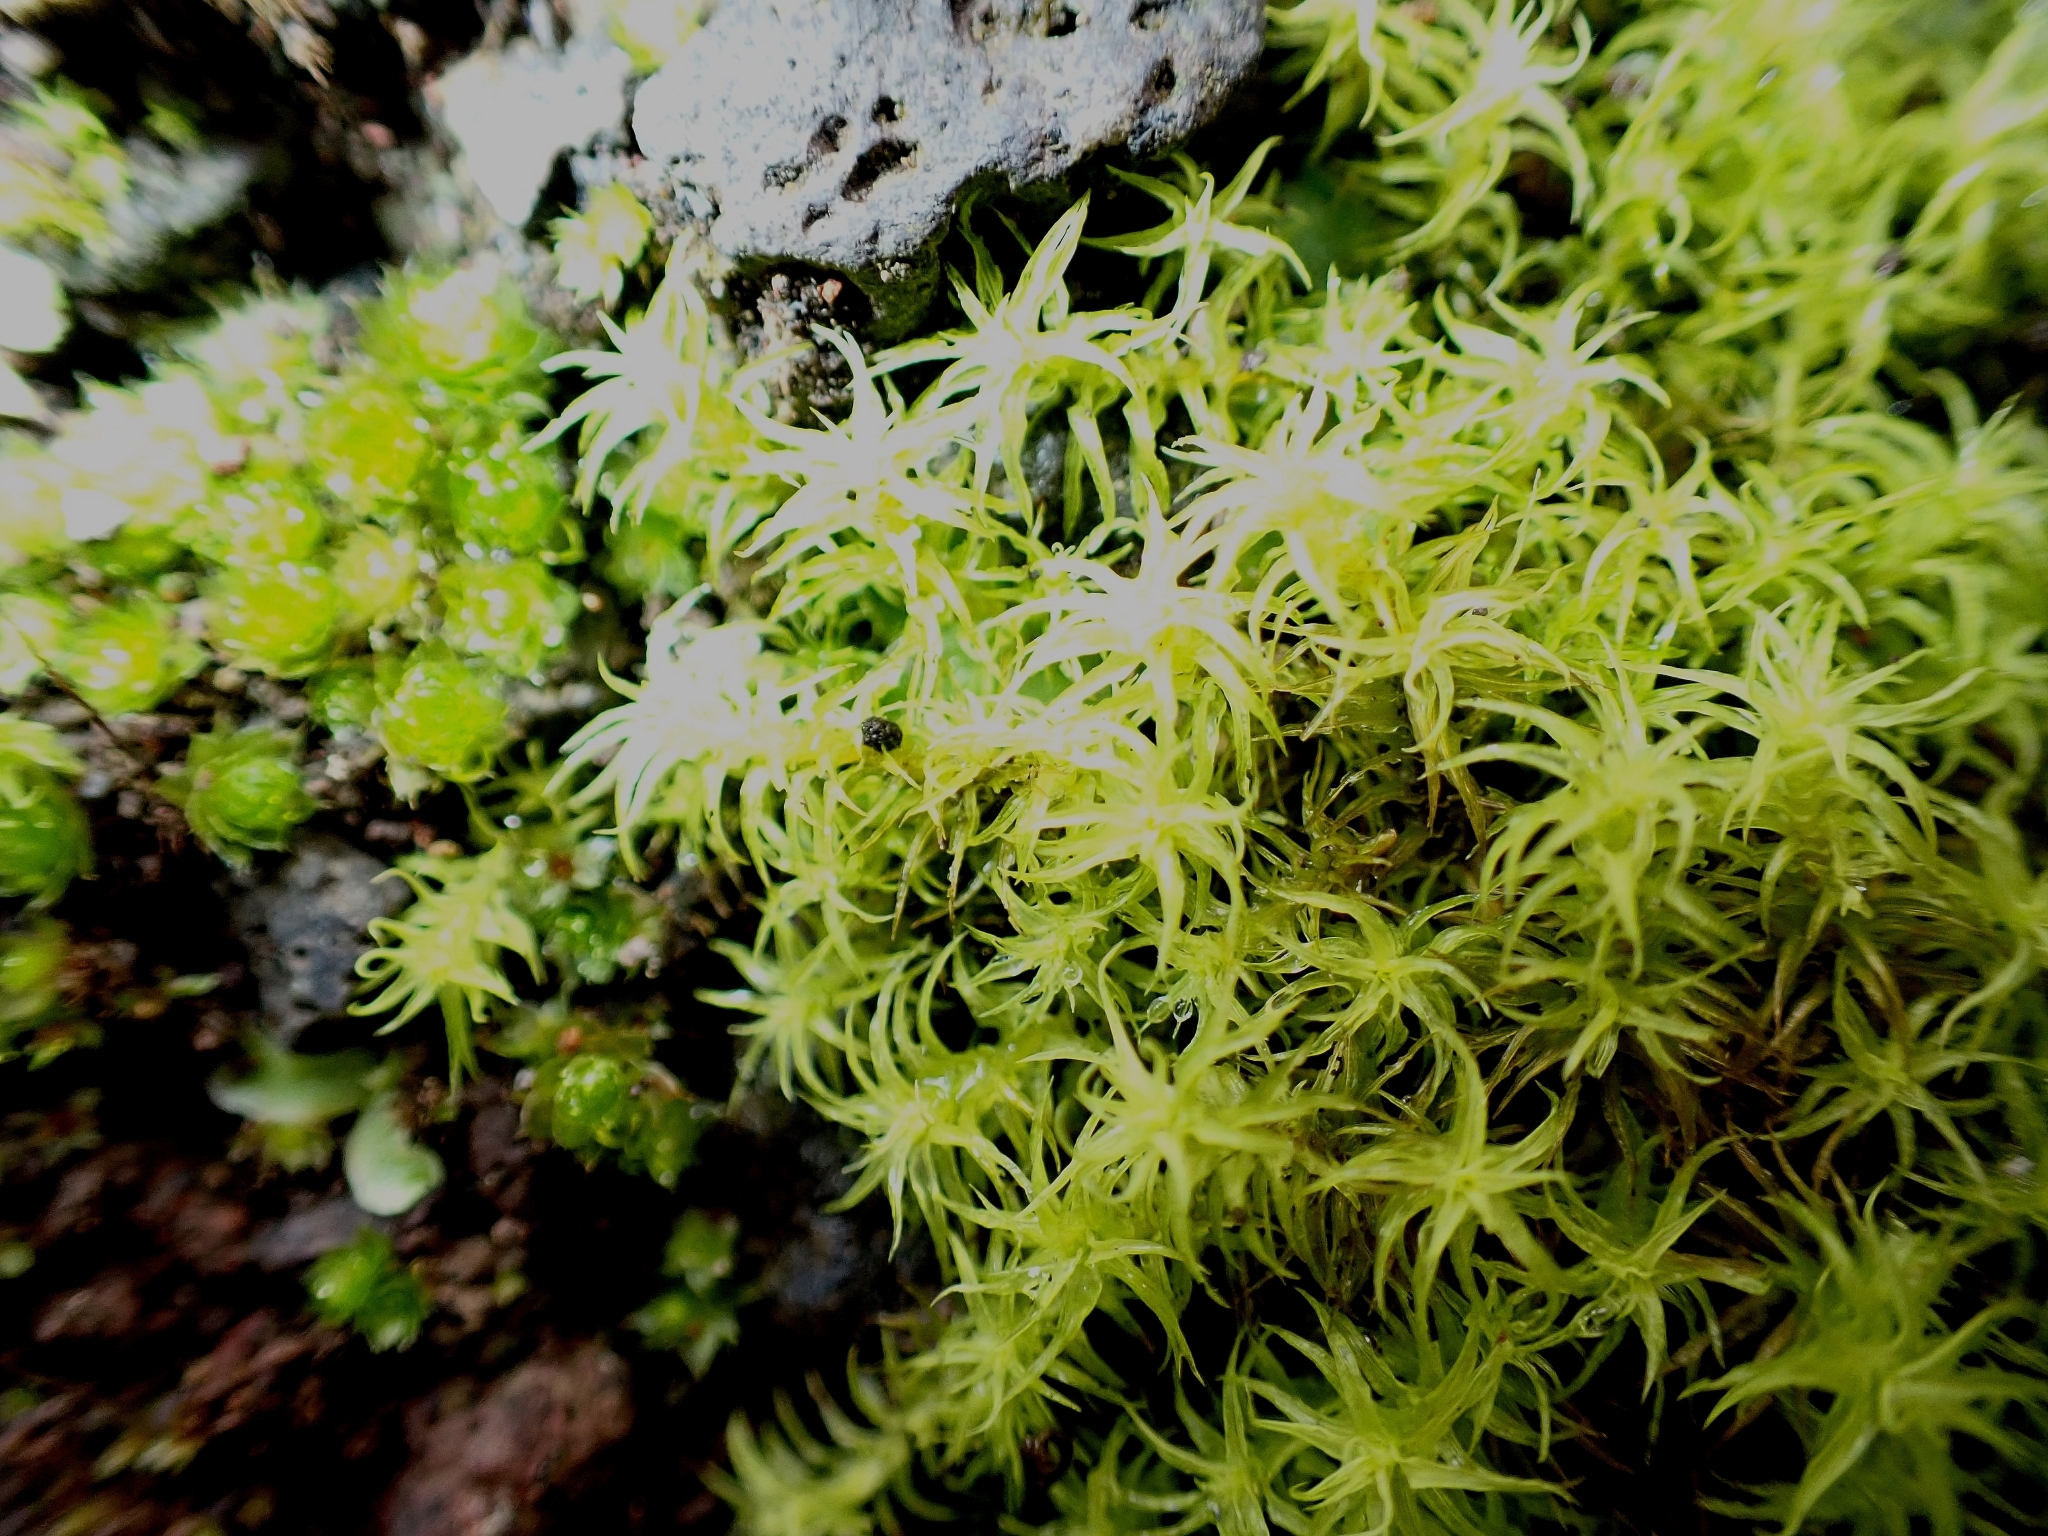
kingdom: Plantae
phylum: Bryophyta
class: Bryopsida
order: Pottiales
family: Pottiaceae
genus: Pleurochaete
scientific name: Pleurochaete squarrosa
